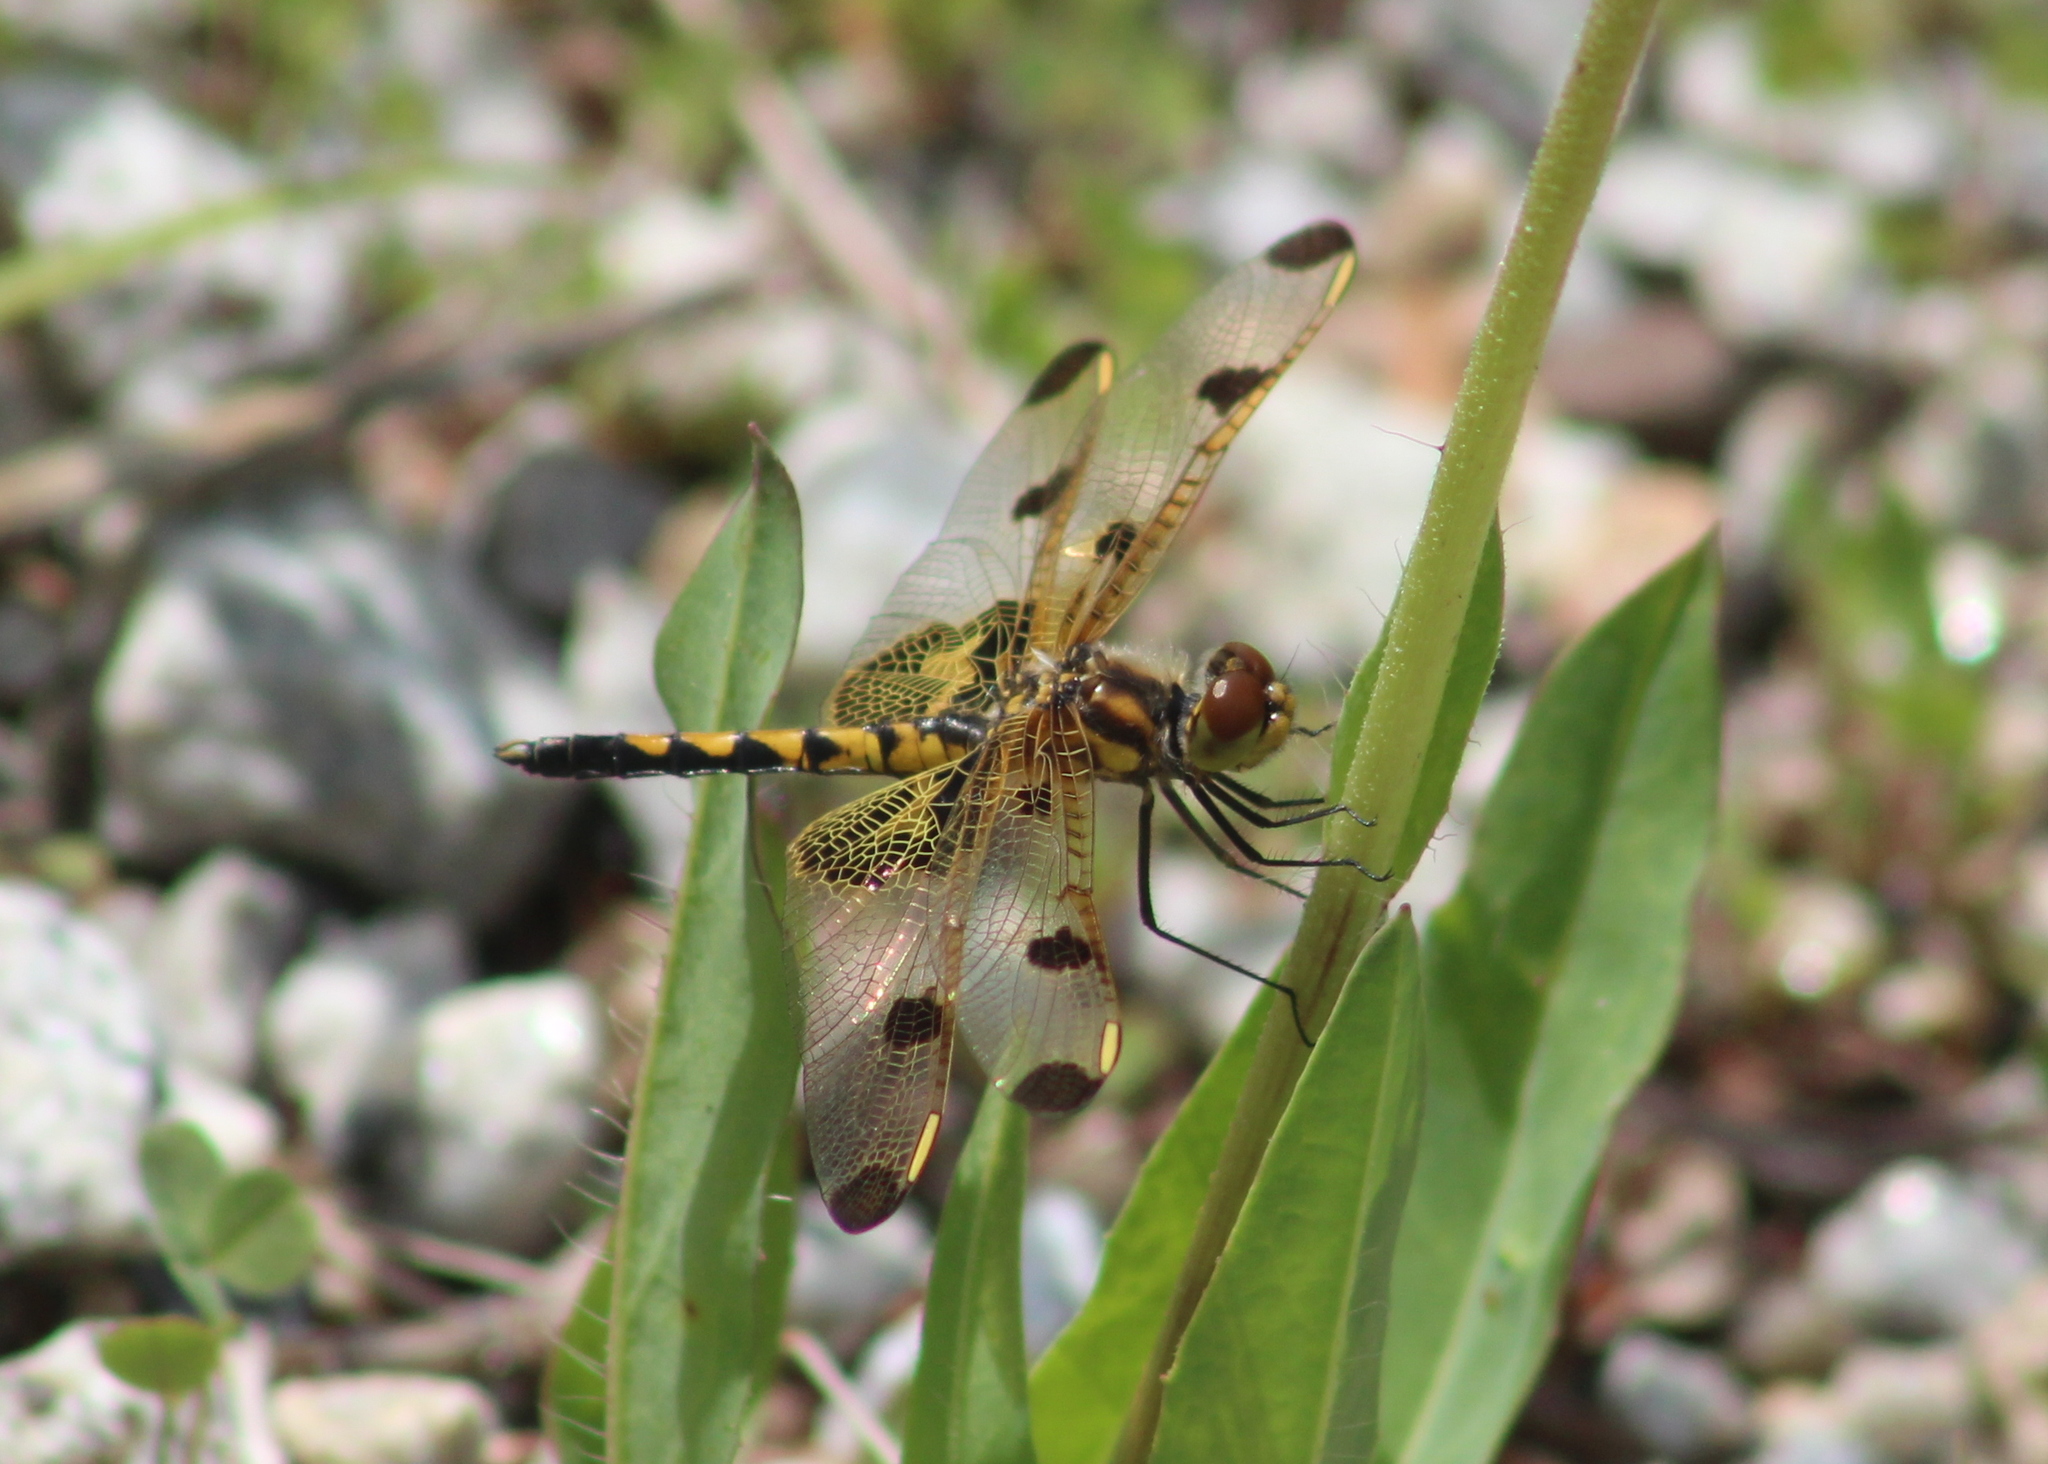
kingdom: Animalia
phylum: Arthropoda
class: Insecta
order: Odonata
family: Libellulidae
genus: Celithemis
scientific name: Celithemis elisa
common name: Calico pennant
